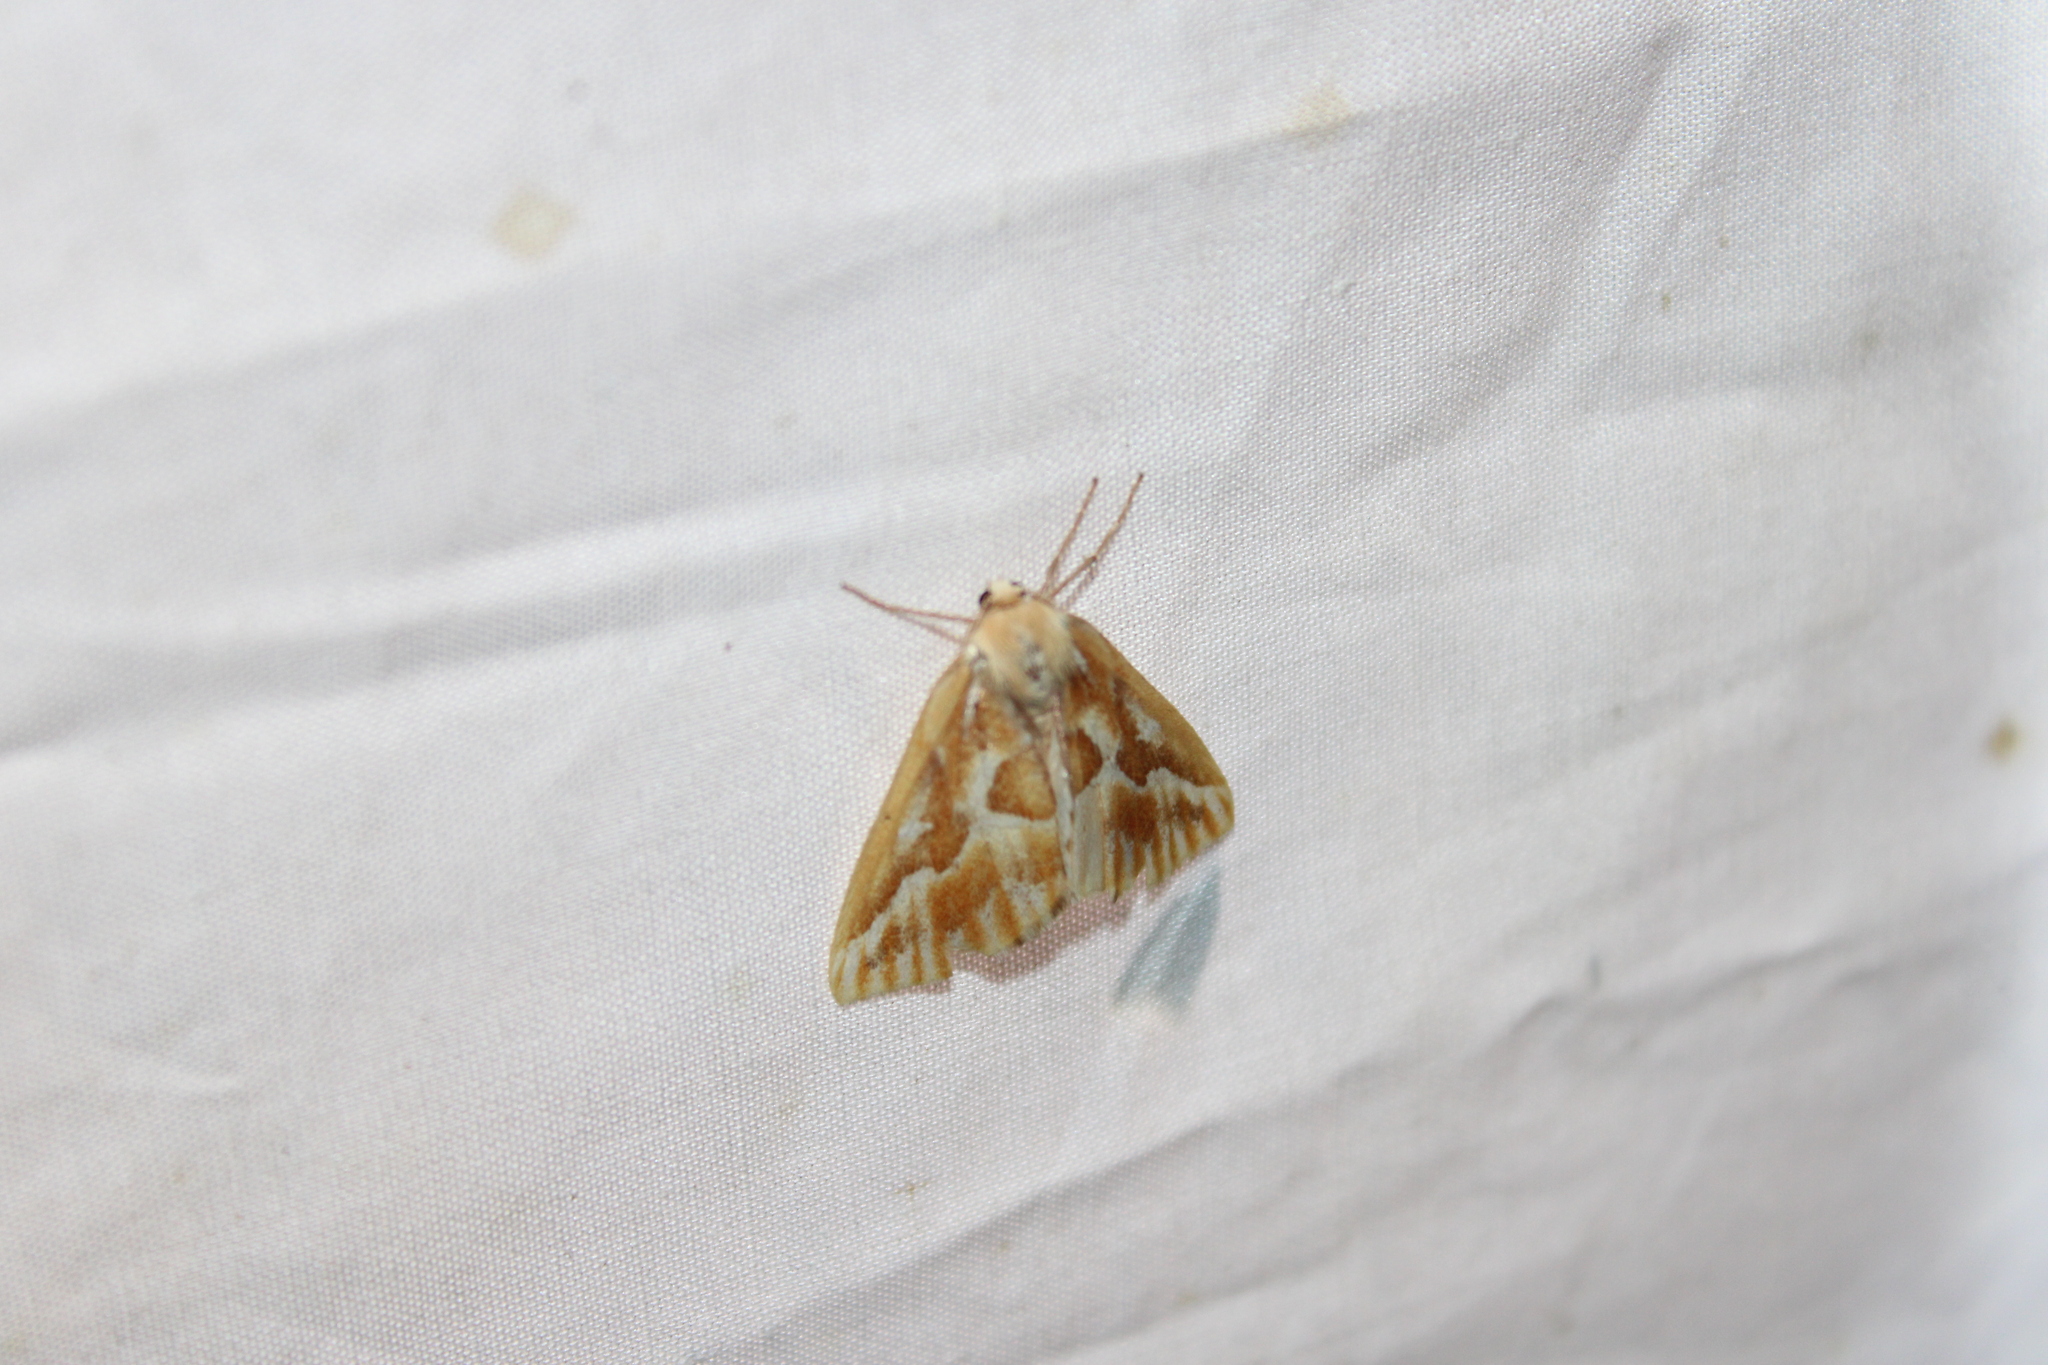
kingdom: Animalia
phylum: Arthropoda
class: Insecta
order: Lepidoptera
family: Geometridae
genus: Caripeta
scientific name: Caripeta piniata
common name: Northern pine looper moth
